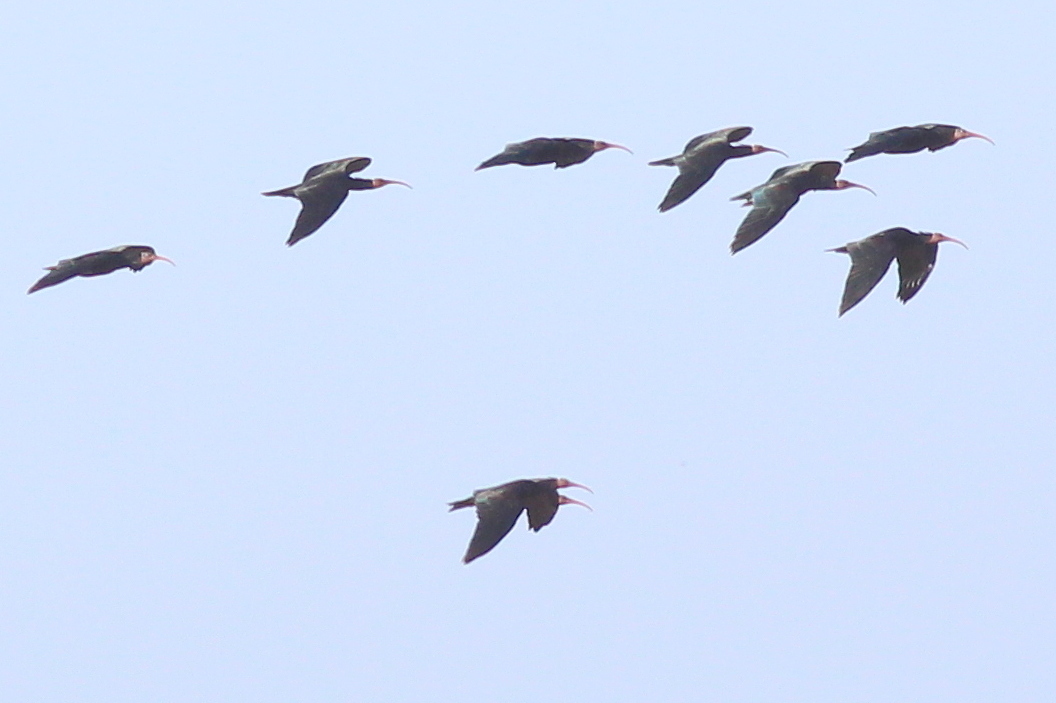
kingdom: Animalia
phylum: Chordata
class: Aves
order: Pelecaniformes
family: Threskiornithidae
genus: Geronticus
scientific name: Geronticus eremita
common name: Northern bald ibis
